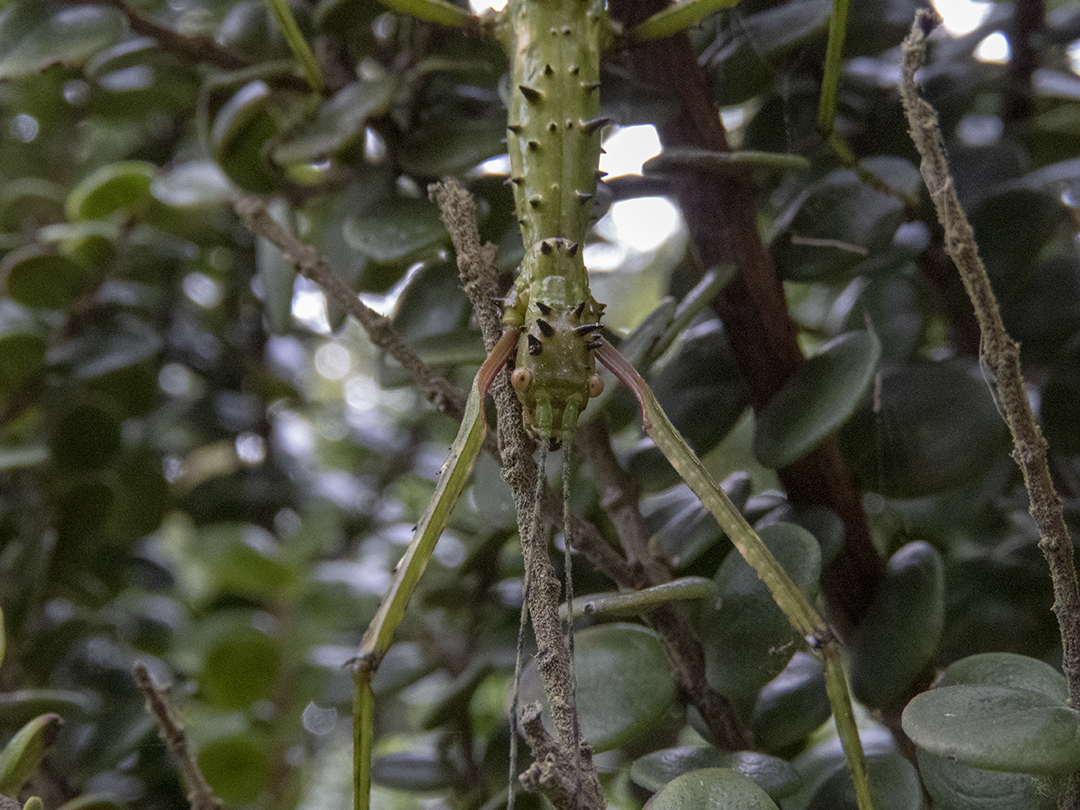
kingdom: Animalia
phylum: Arthropoda
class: Insecta
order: Phasmida
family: Phasmatidae
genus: Acanthoxyla
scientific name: Acanthoxyla prasina
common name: Black-spined stick insect
